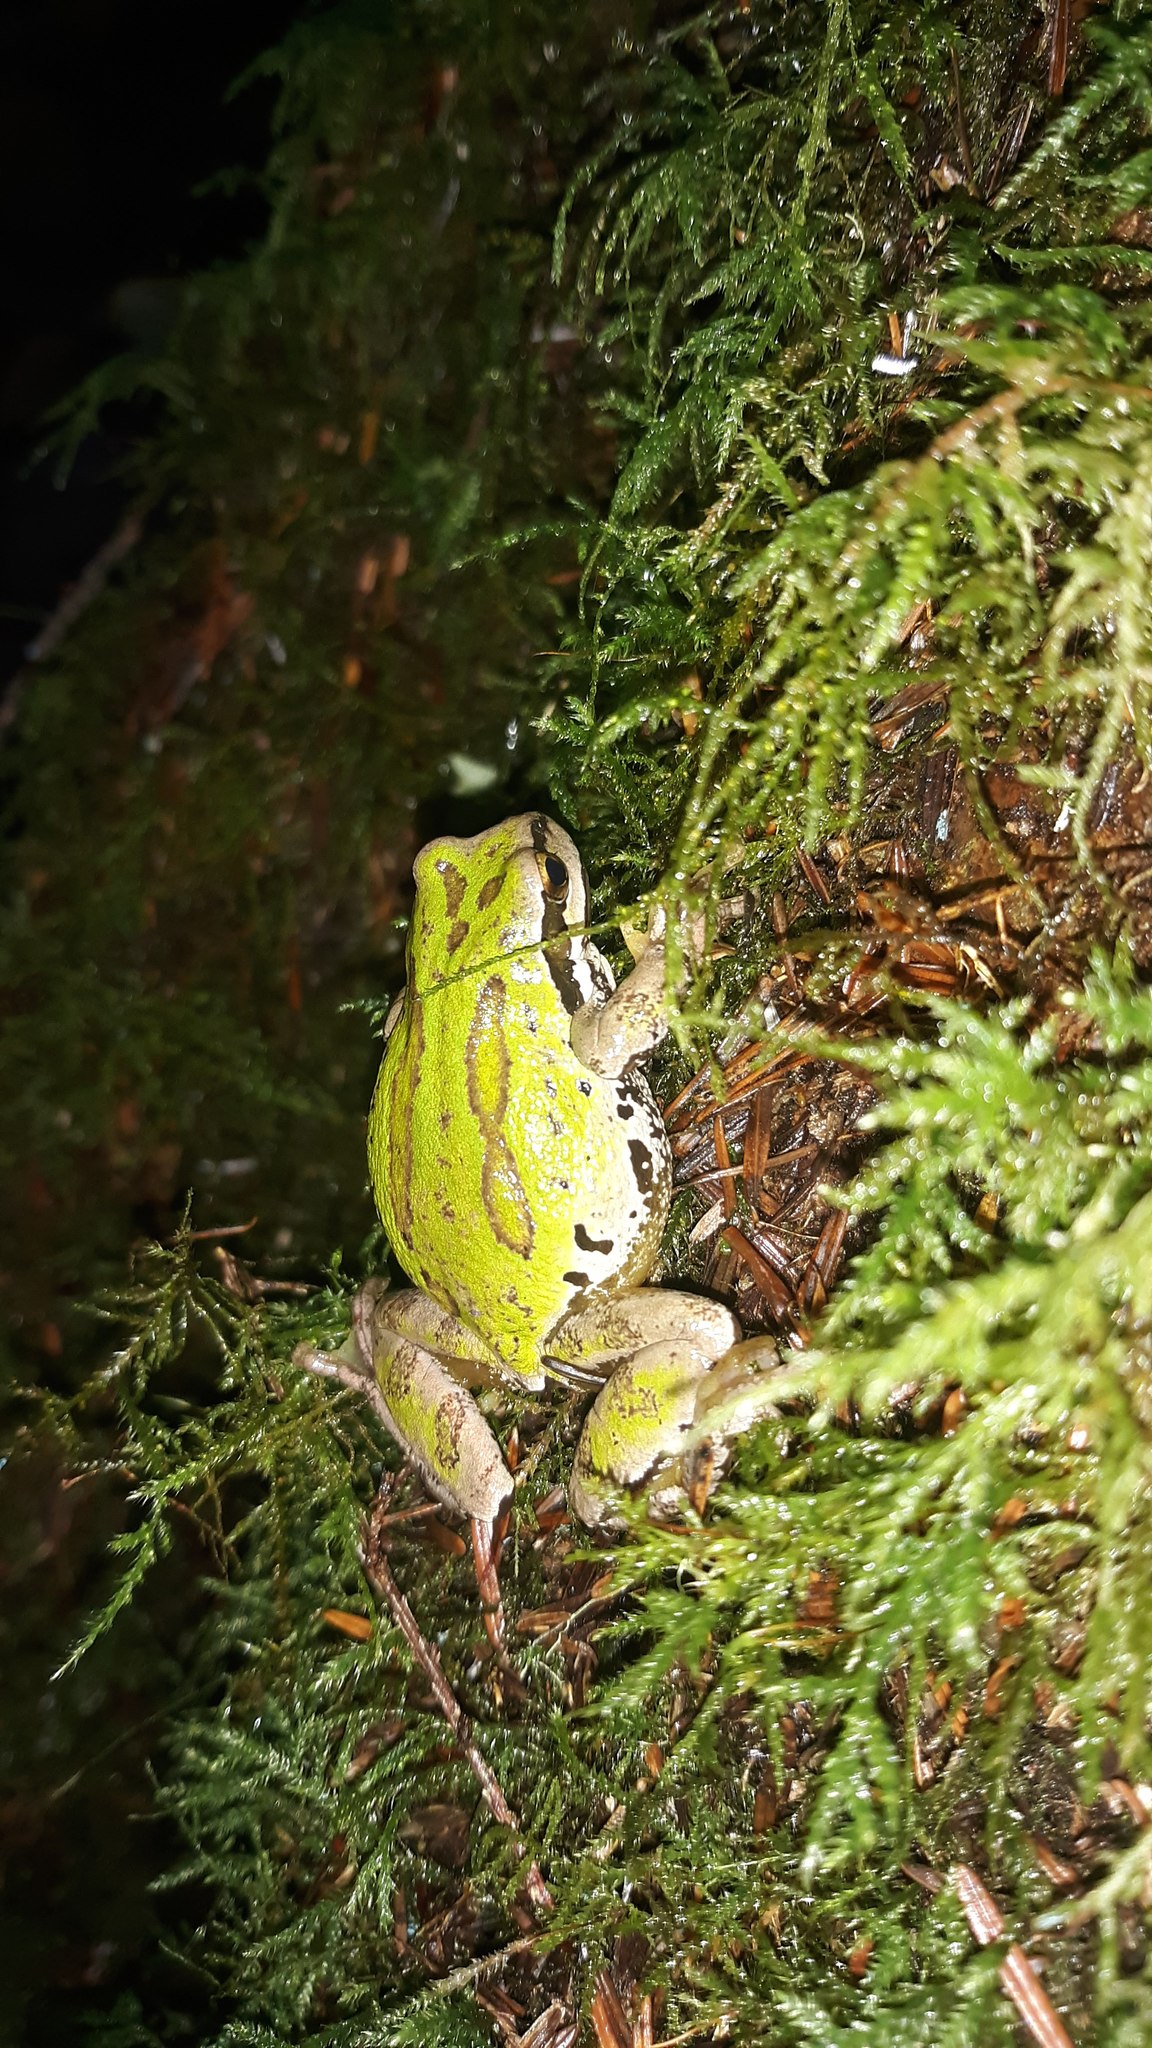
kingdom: Animalia
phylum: Chordata
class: Amphibia
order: Anura
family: Hylidae
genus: Pseudacris
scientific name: Pseudacris regilla
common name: Pacific chorus frog
